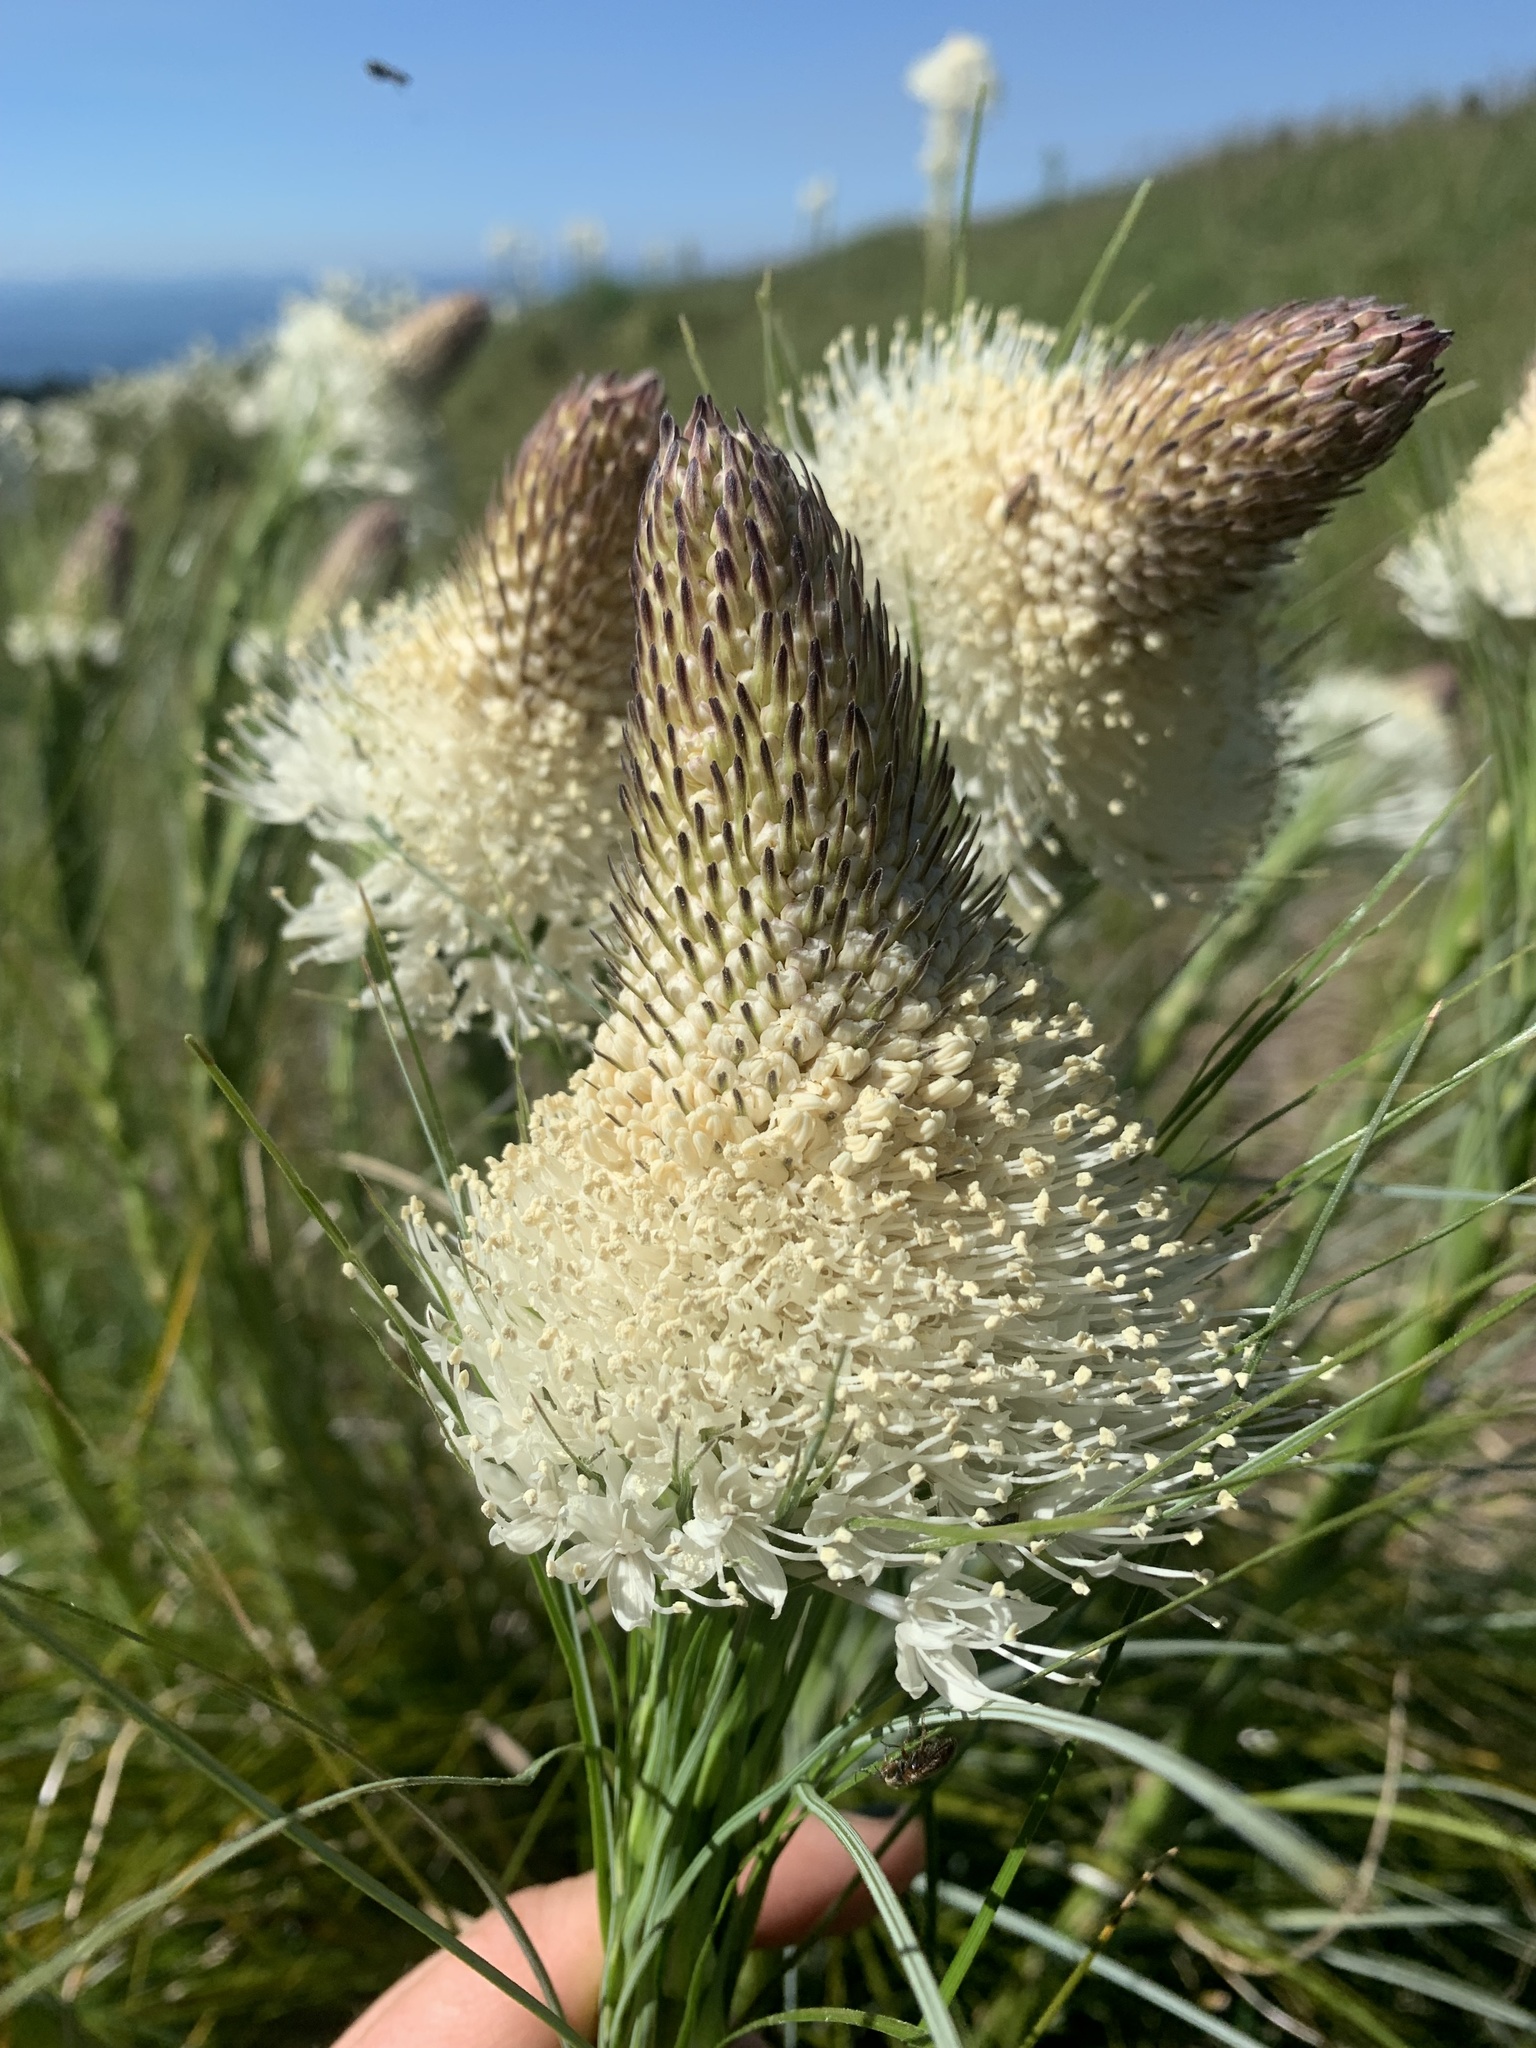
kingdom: Plantae
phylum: Tracheophyta
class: Liliopsida
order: Liliales
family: Melanthiaceae
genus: Xerophyllum
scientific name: Xerophyllum tenax
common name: Bear-grass
